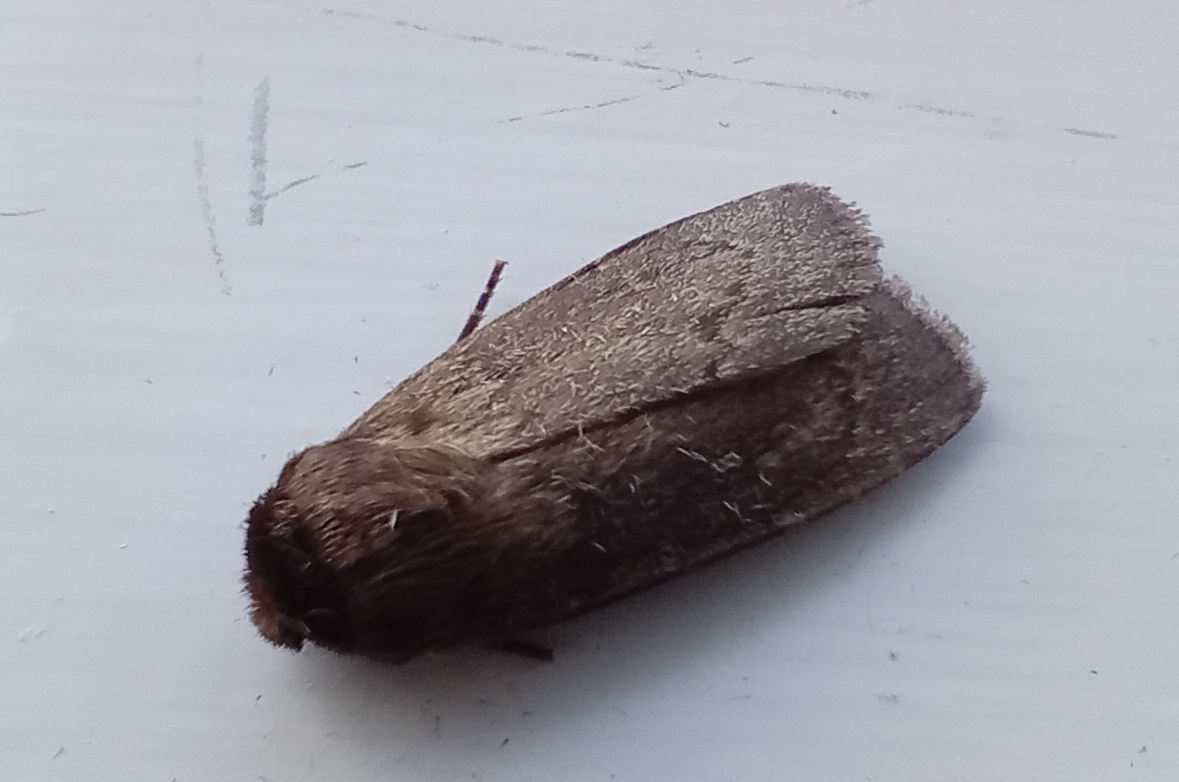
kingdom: Animalia
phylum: Arthropoda
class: Insecta
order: Lepidoptera
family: Noctuidae
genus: Bityla
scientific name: Bityla defigurata
